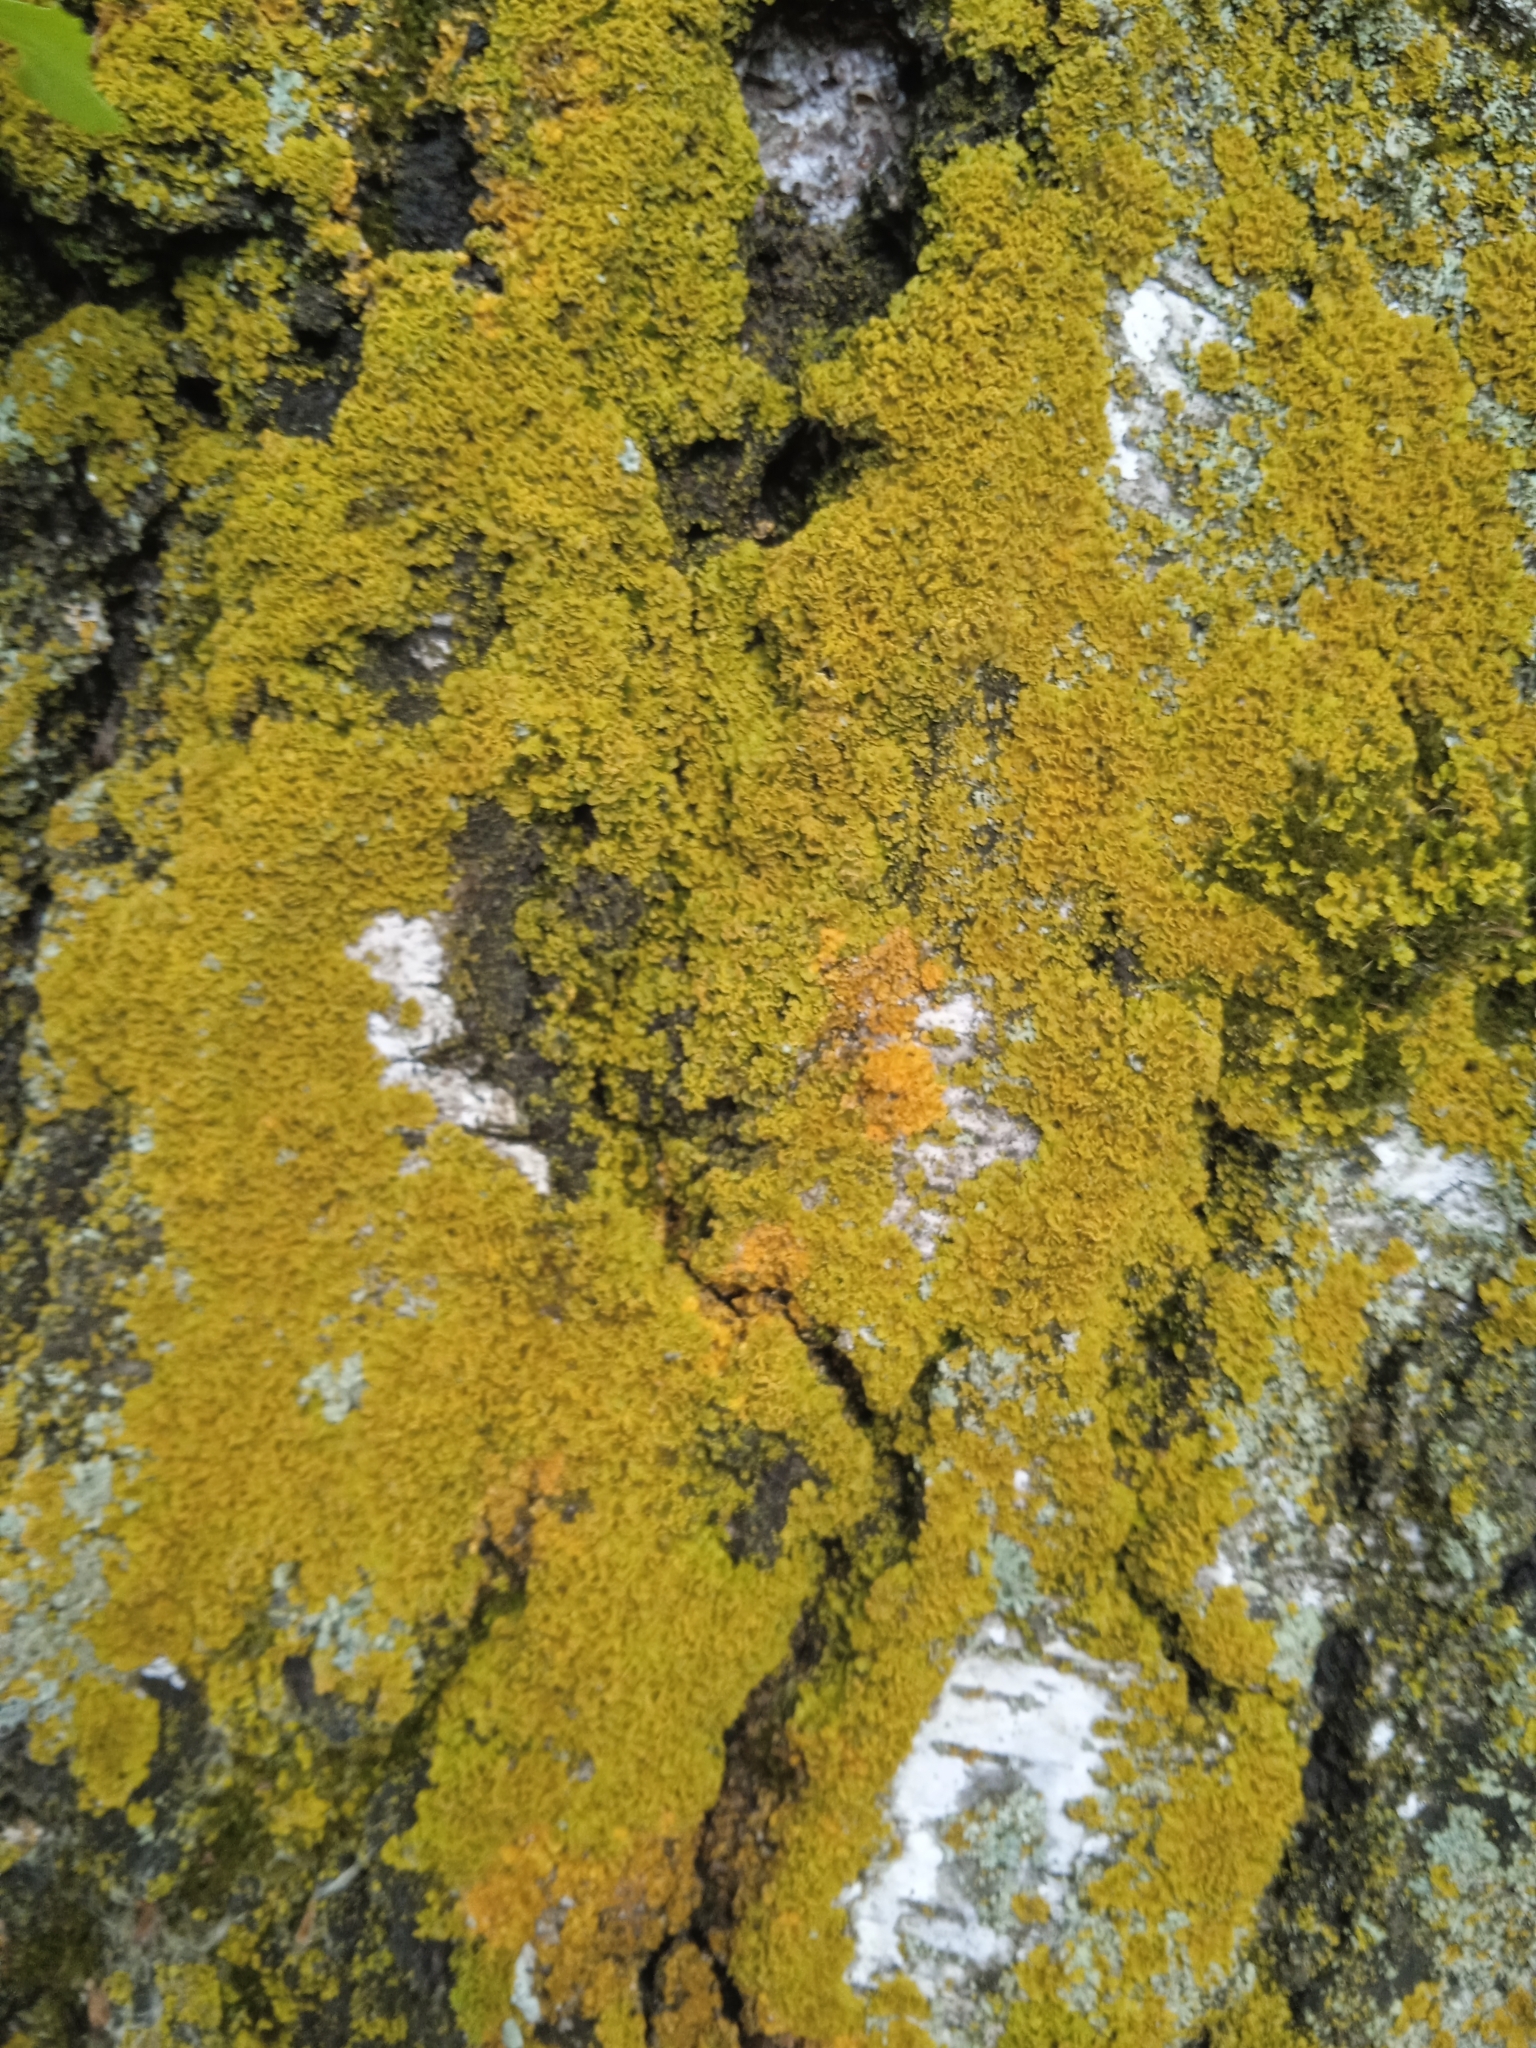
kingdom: Fungi
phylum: Ascomycota
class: Lecanoromycetes
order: Teloschistales
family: Teloschistaceae
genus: Xanthoria
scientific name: Xanthoria ulophyllodes
